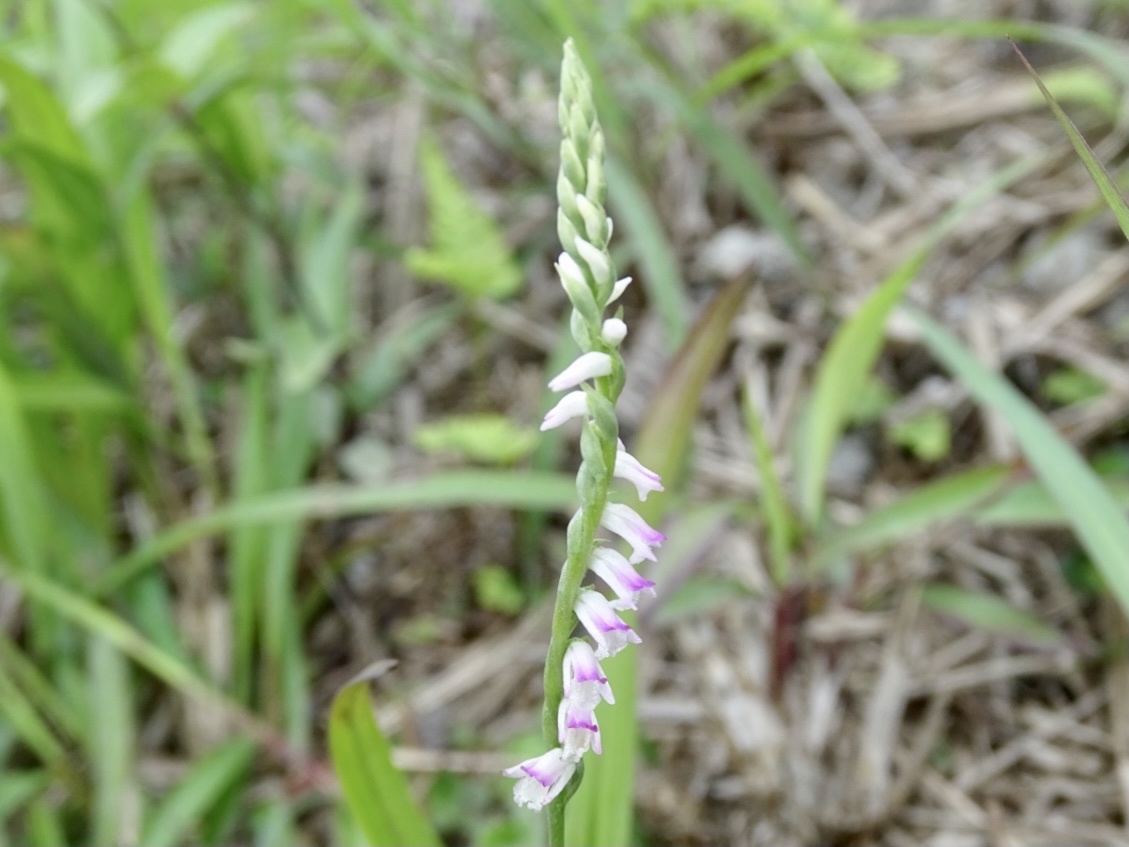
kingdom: Plantae
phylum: Tracheophyta
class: Liliopsida
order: Asparagales
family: Orchidaceae
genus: Spiranthes
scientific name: Spiranthes sinensis
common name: Chinese spiranthes
